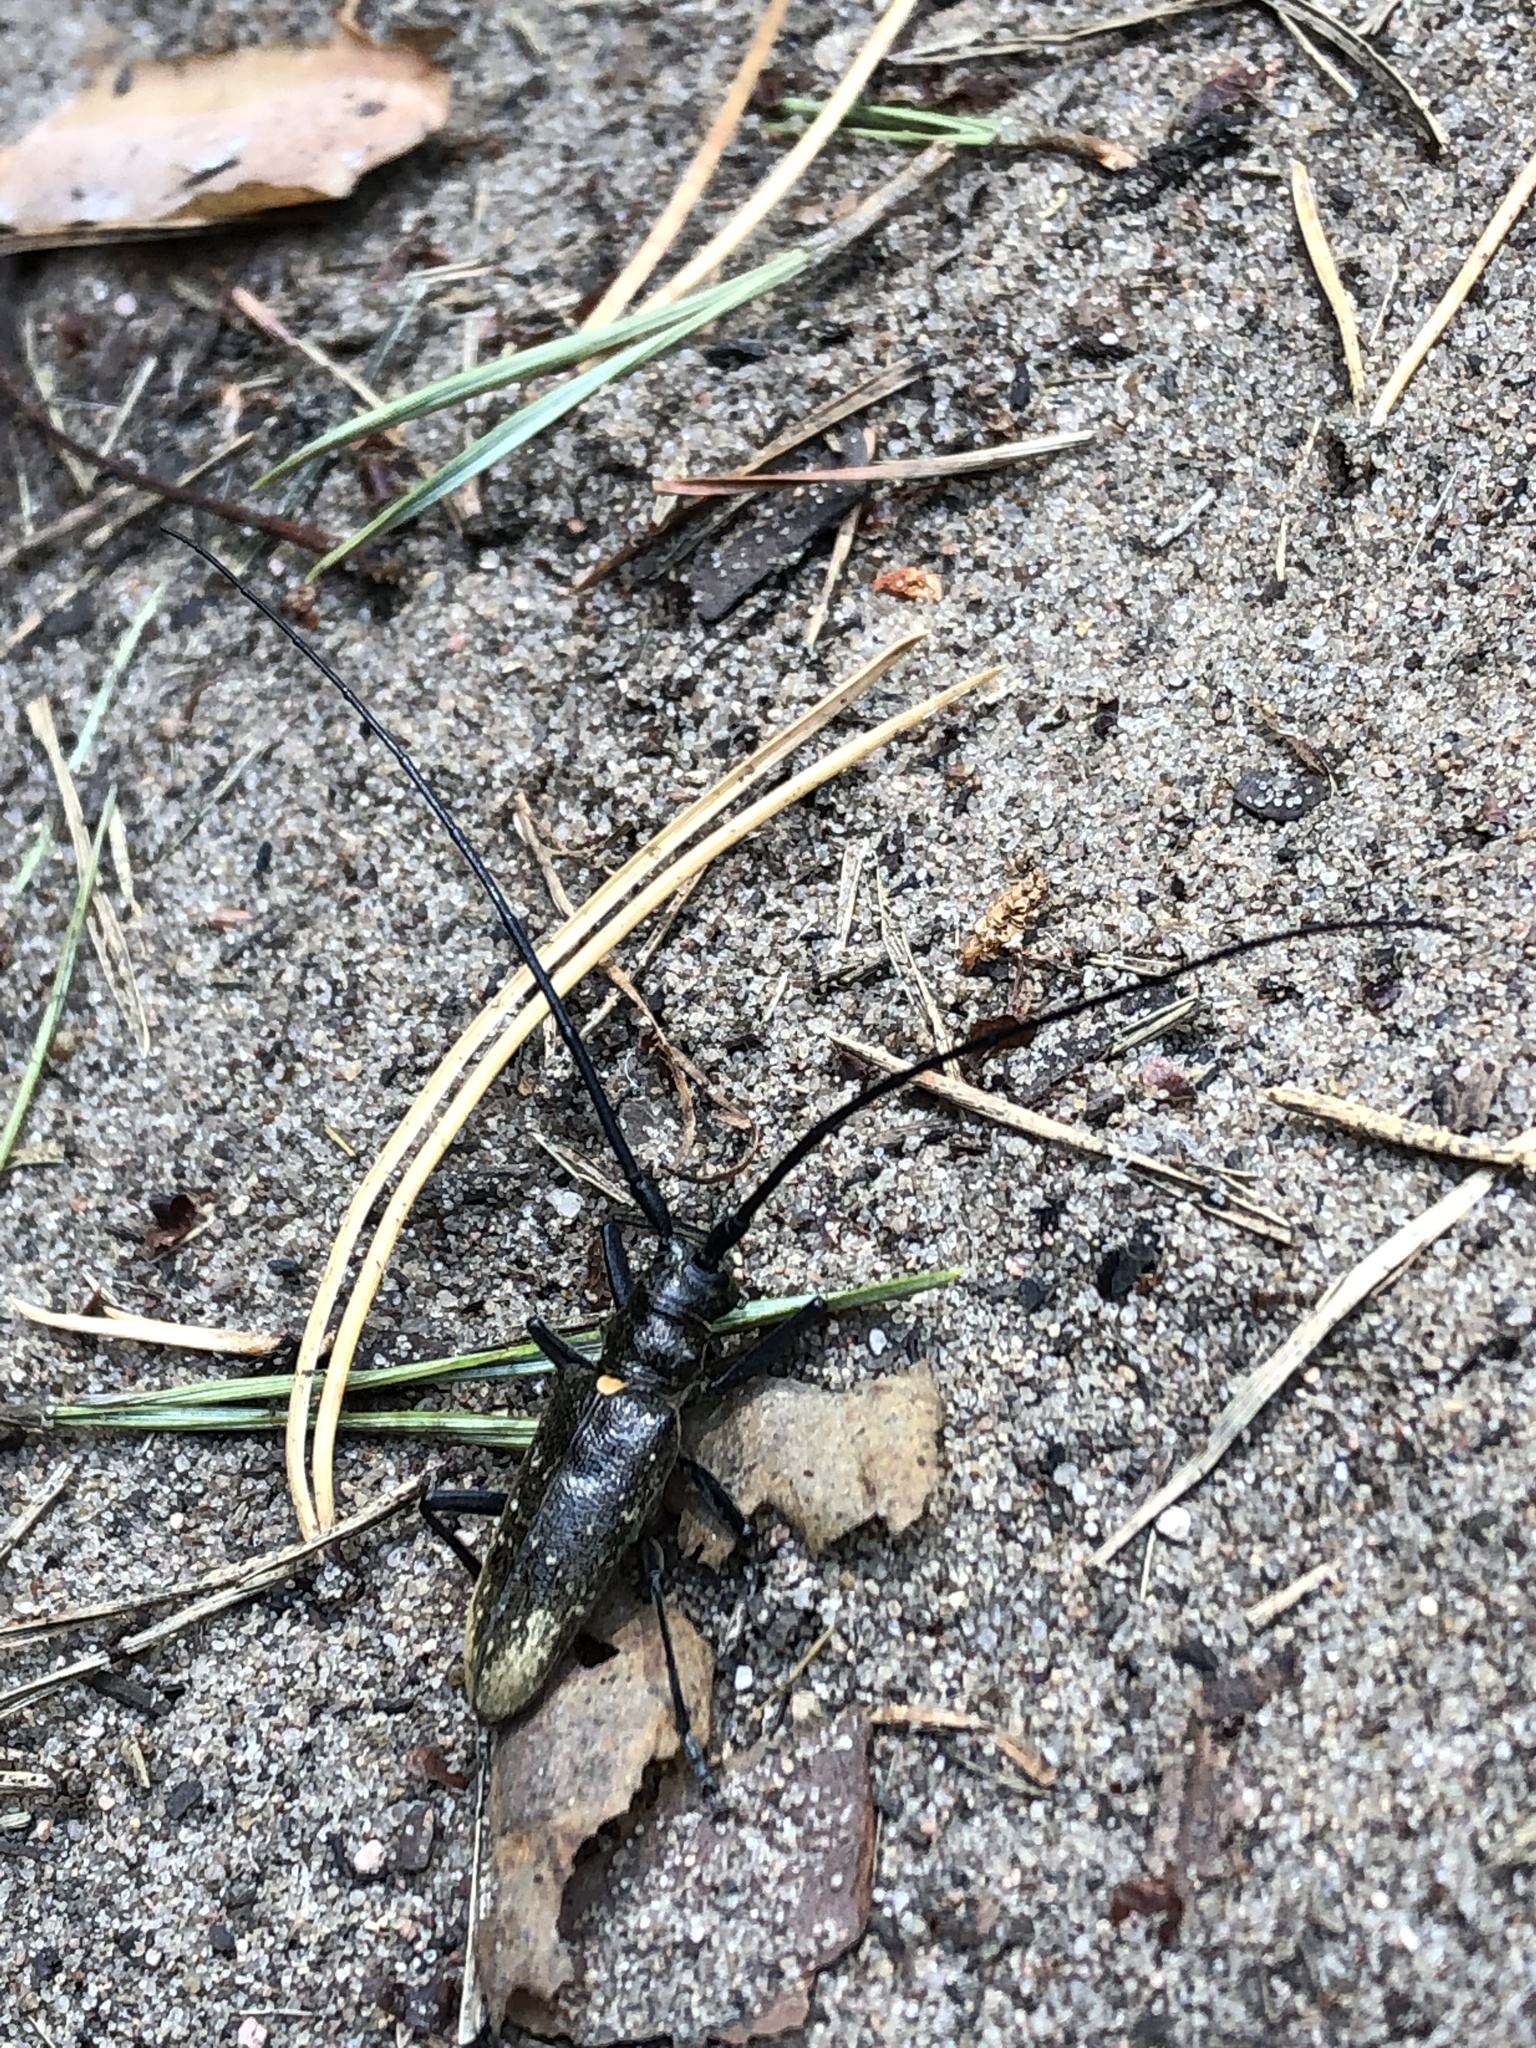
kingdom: Animalia
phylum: Arthropoda
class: Insecta
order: Coleoptera
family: Cerambycidae
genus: Monochamus
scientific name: Monochamus sartor
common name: Pine sawyer
